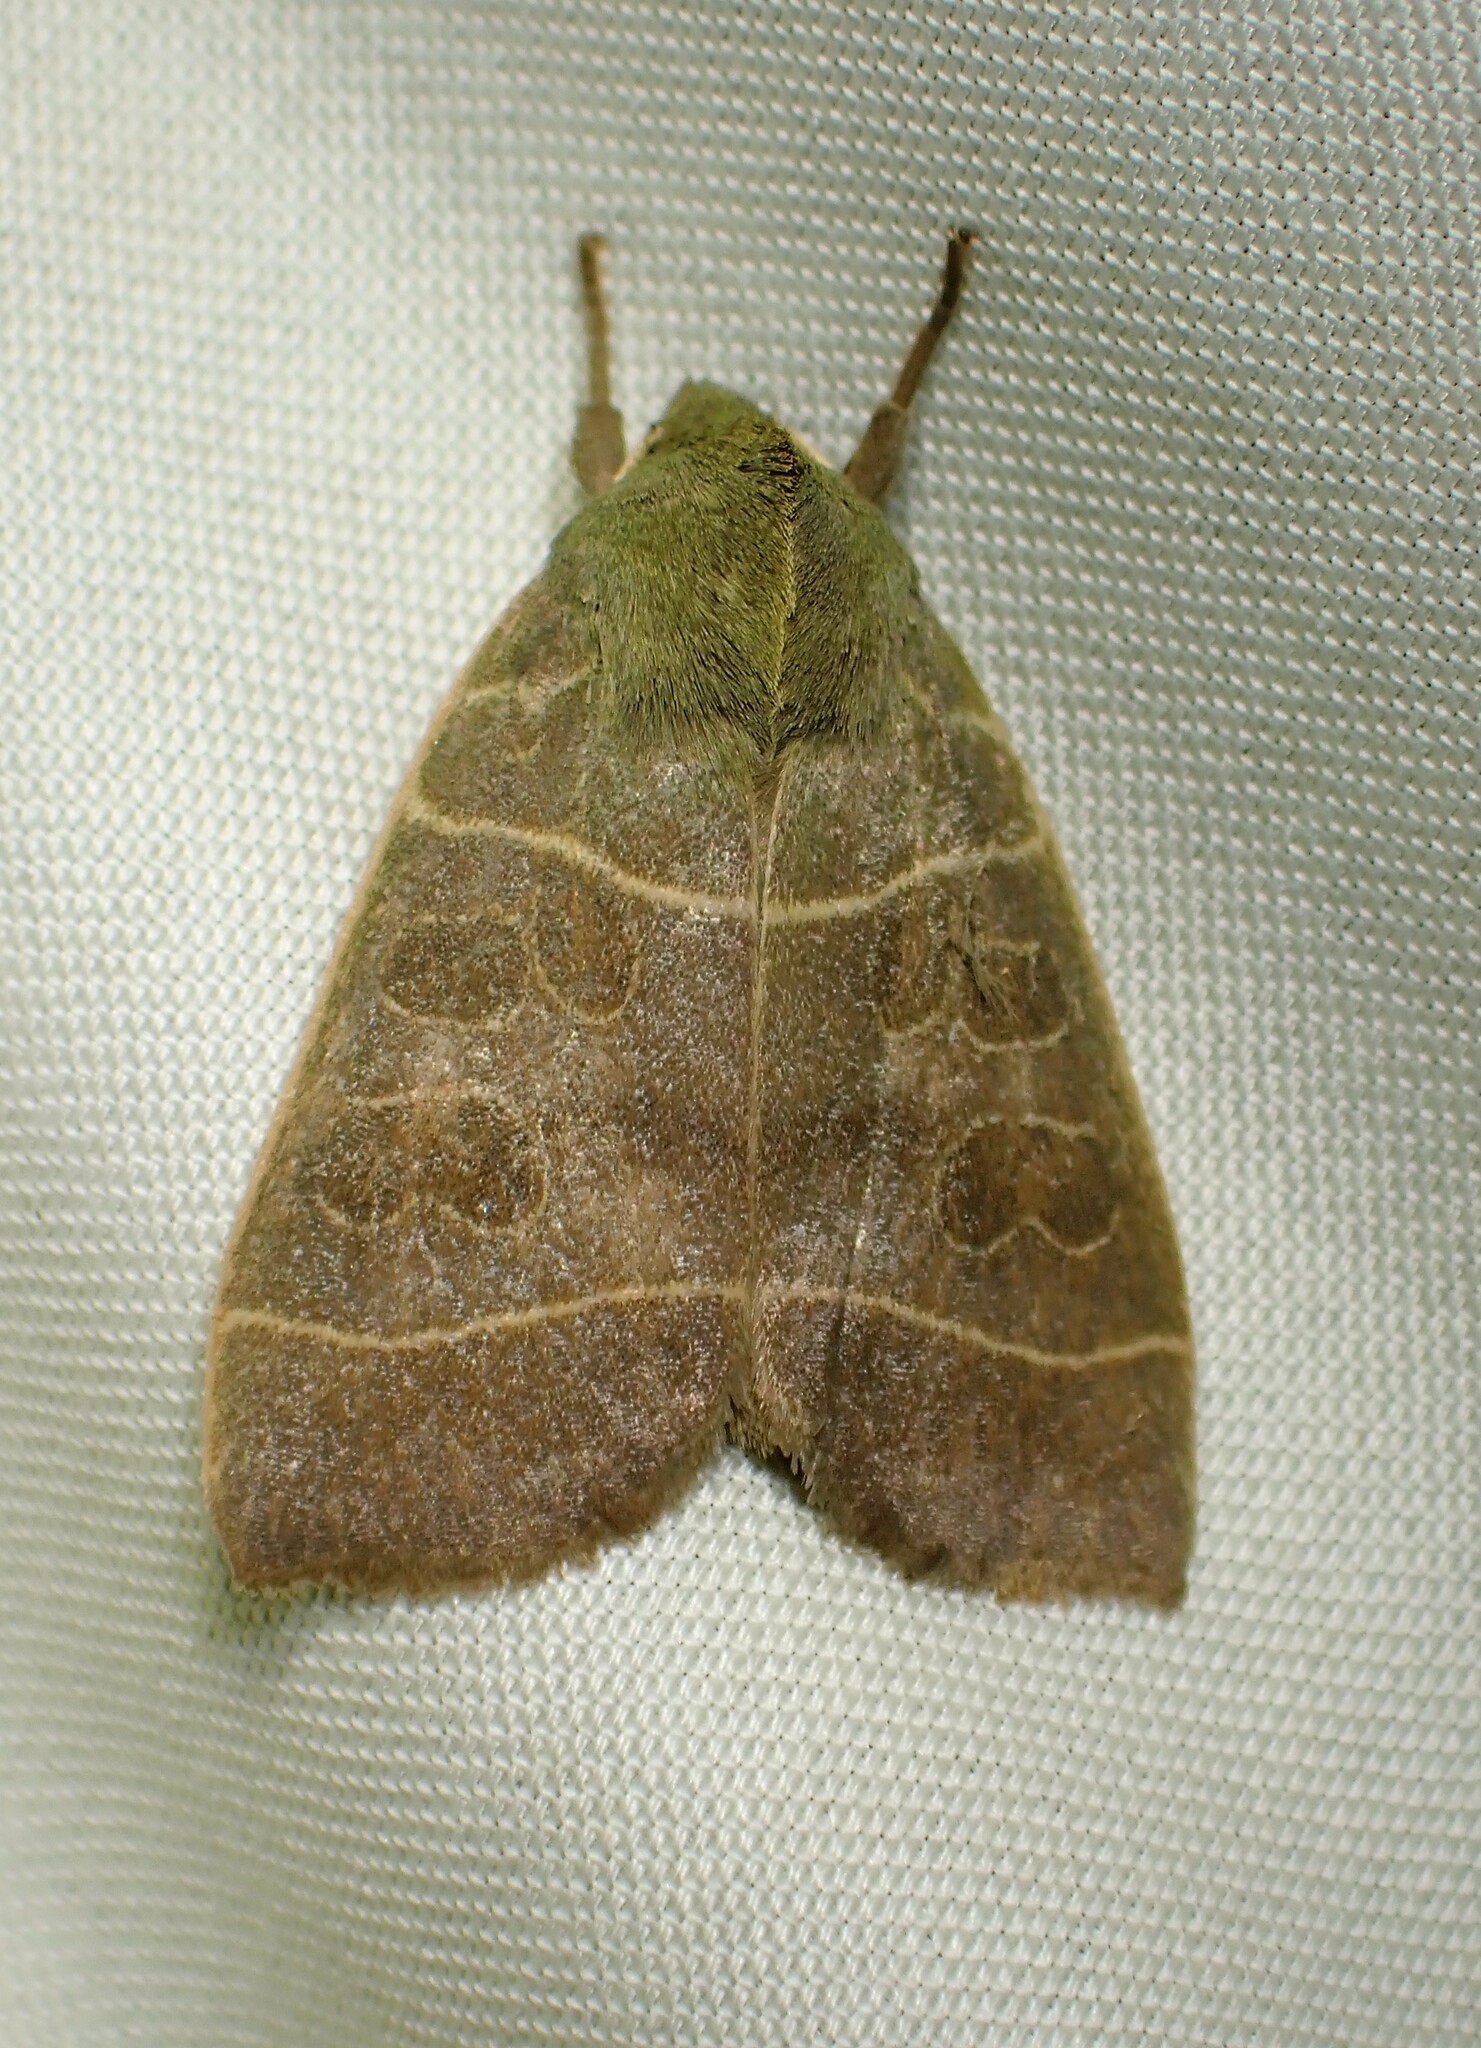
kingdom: Animalia
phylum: Arthropoda
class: Insecta
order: Lepidoptera
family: Noctuidae
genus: Ipimorpha
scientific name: Ipimorpha pleonectusa
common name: Even-lined sallow
